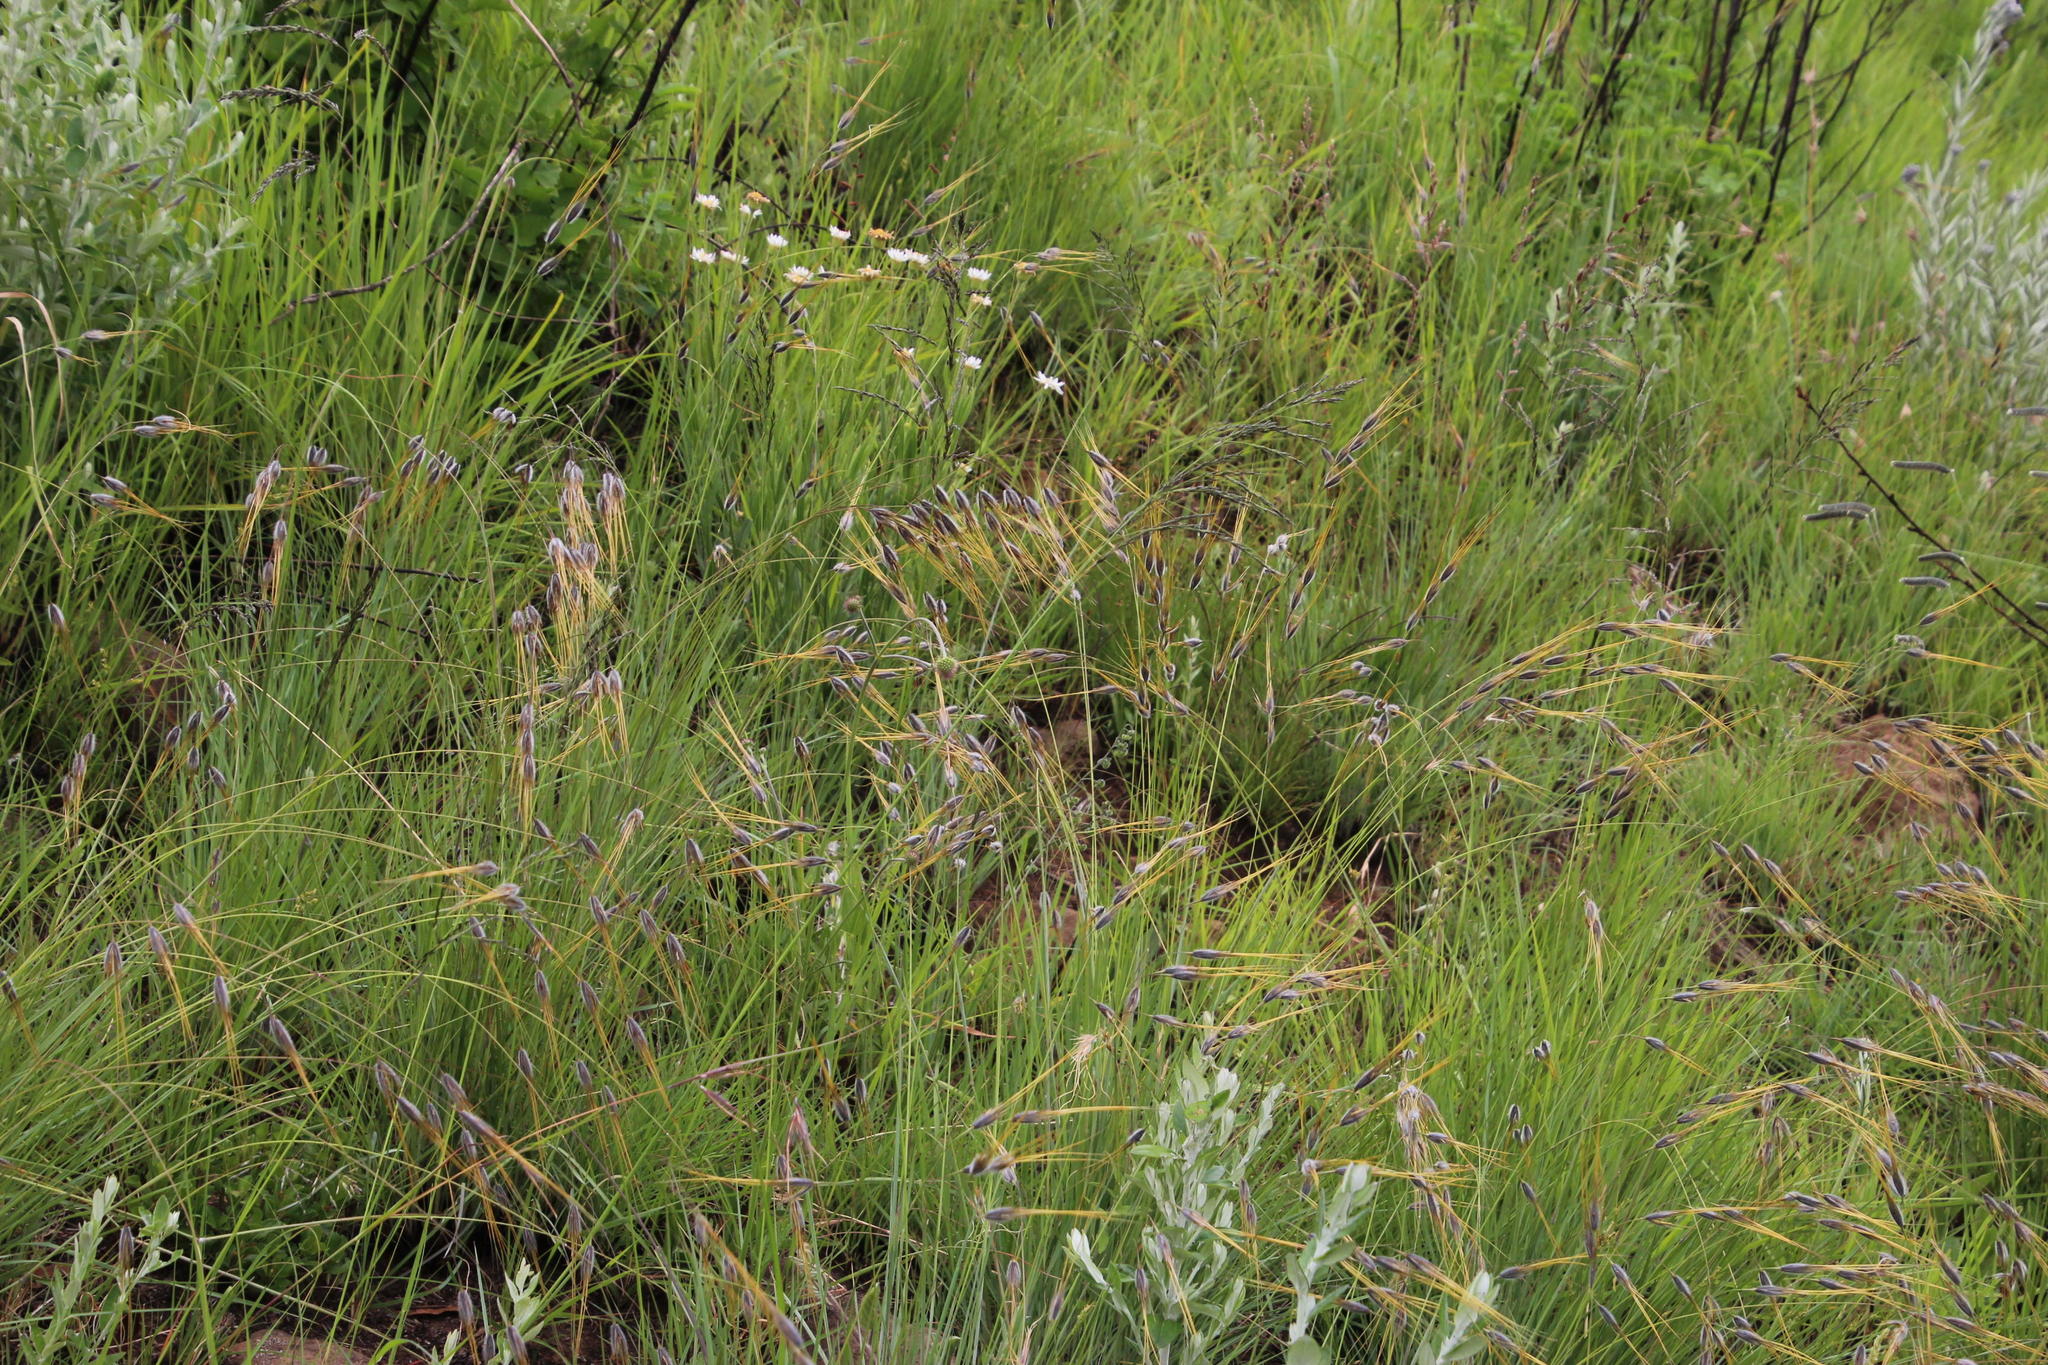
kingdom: Plantae
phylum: Tracheophyta
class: Liliopsida
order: Poales
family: Poaceae
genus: Tristachya
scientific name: Tristachya leucothrix
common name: Trident grass
